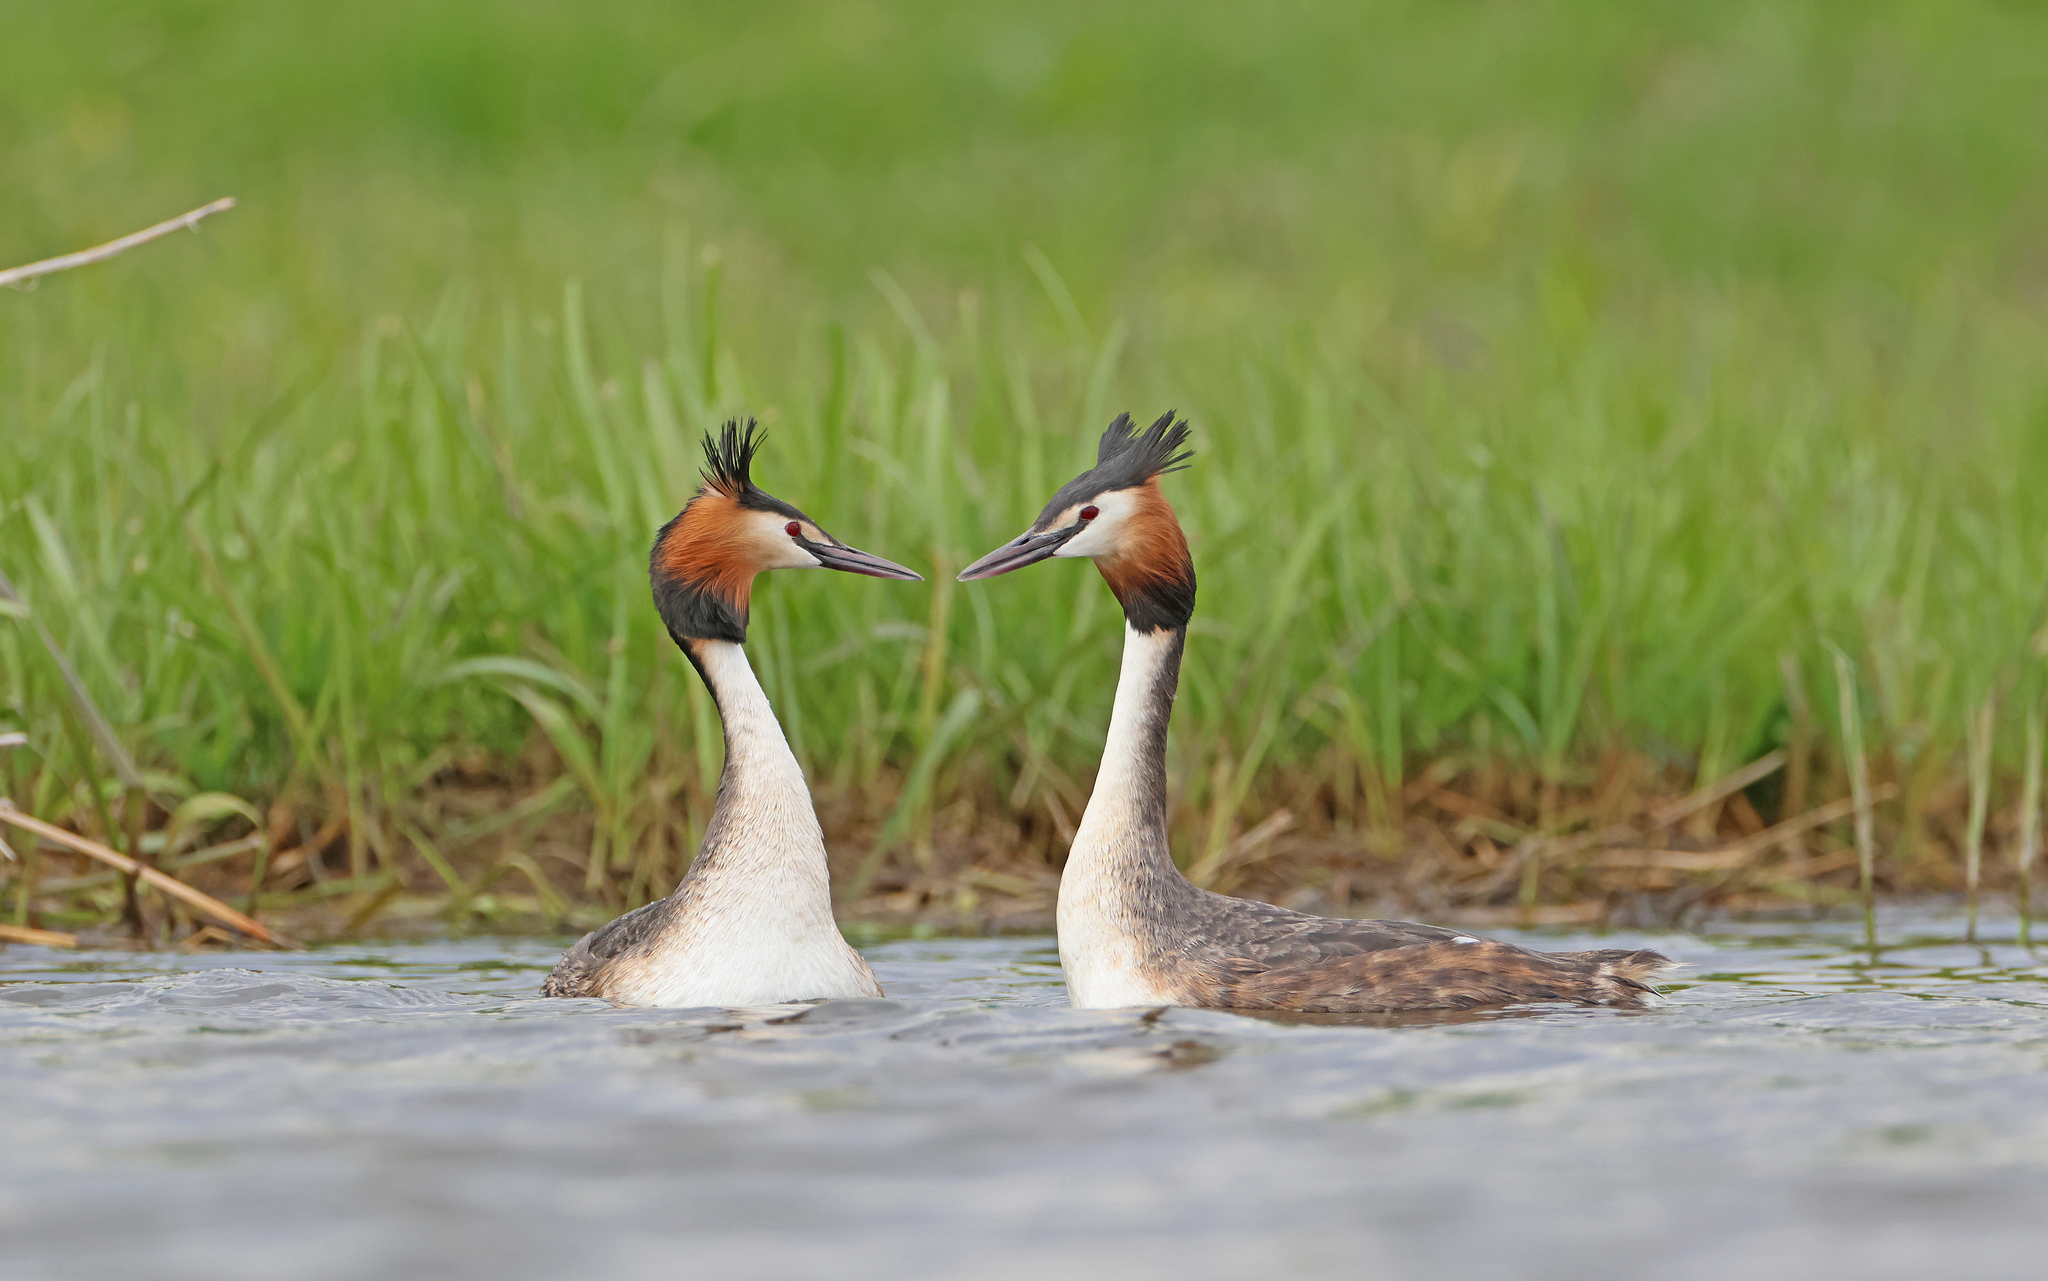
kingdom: Animalia
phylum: Chordata
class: Aves
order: Podicipediformes
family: Podicipedidae
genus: Podiceps
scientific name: Podiceps cristatus
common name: Great crested grebe
